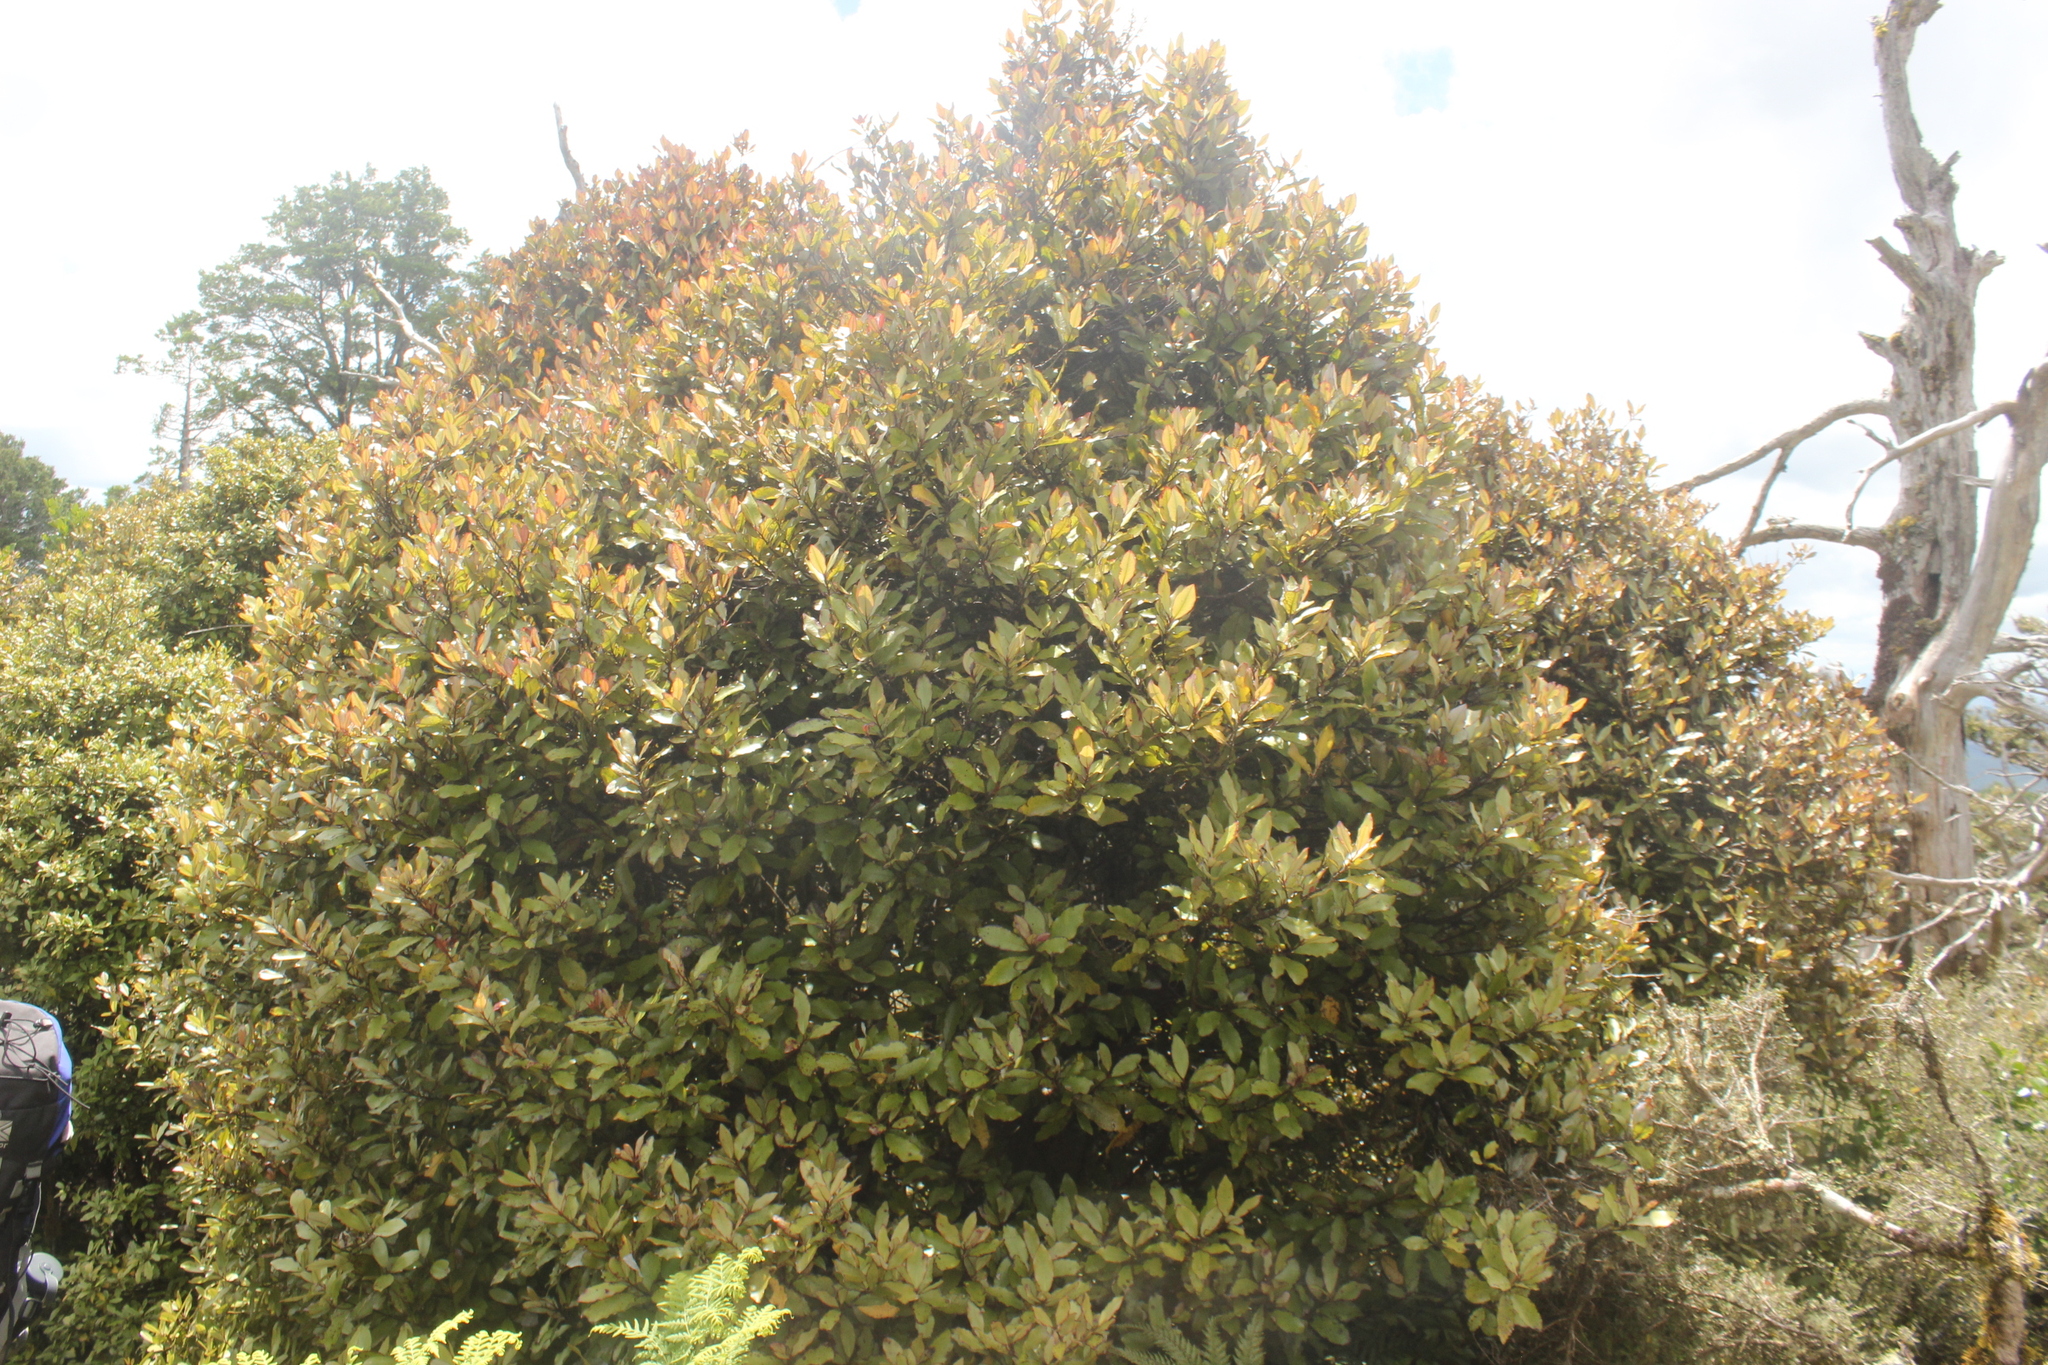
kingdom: Plantae
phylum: Tracheophyta
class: Magnoliopsida
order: Canellales
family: Winteraceae
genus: Pseudowintera
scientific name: Pseudowintera colorata
